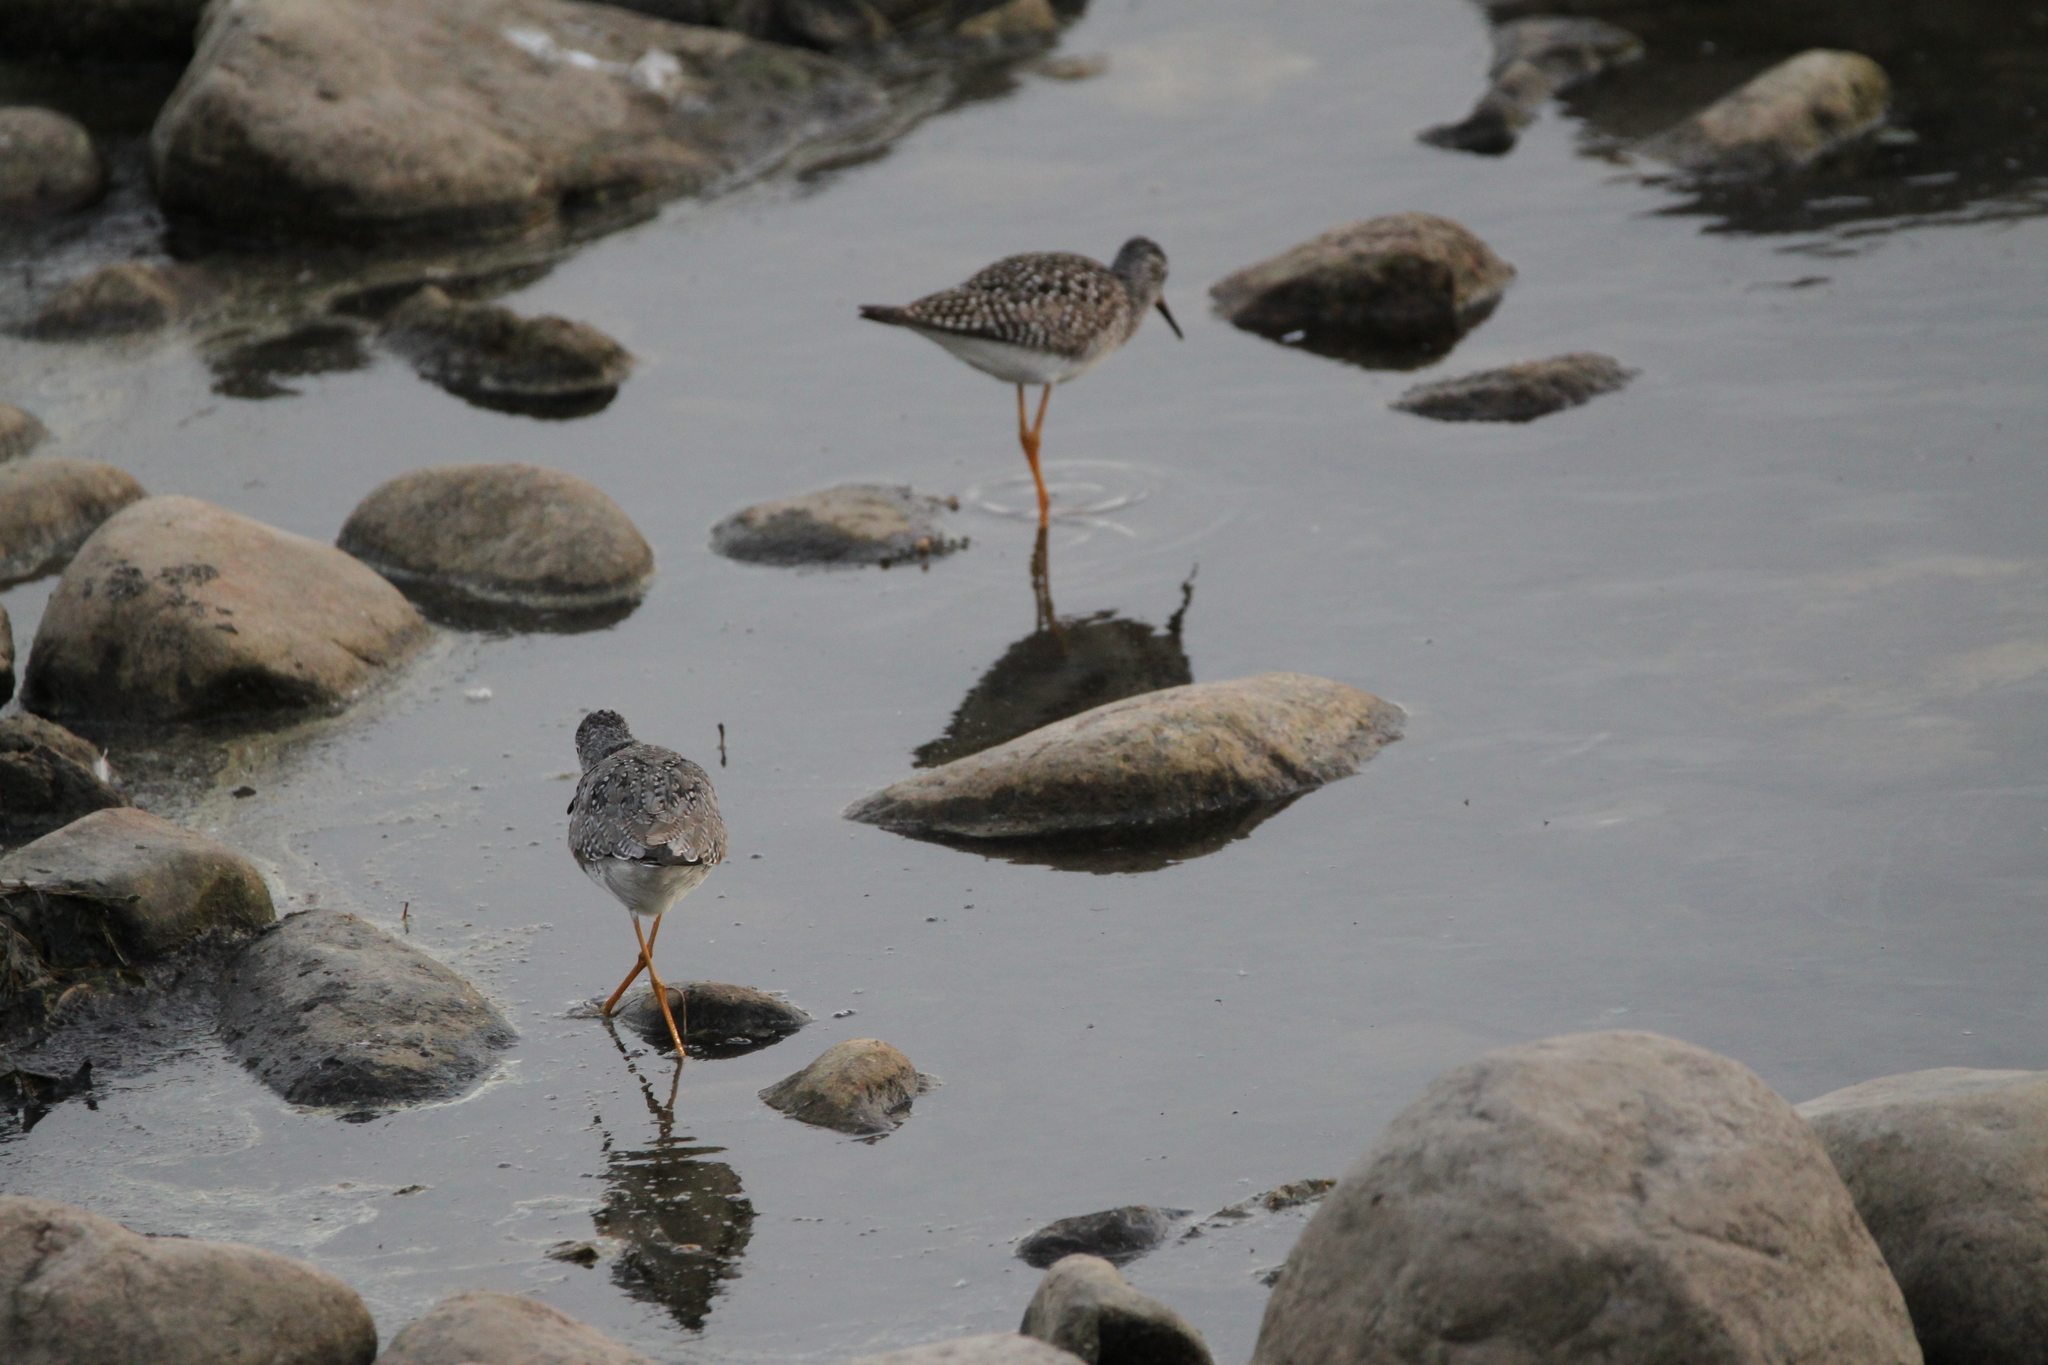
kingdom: Animalia
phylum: Chordata
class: Aves
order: Charadriiformes
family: Scolopacidae
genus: Tringa
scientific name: Tringa flavipes
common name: Lesser yellowlegs
